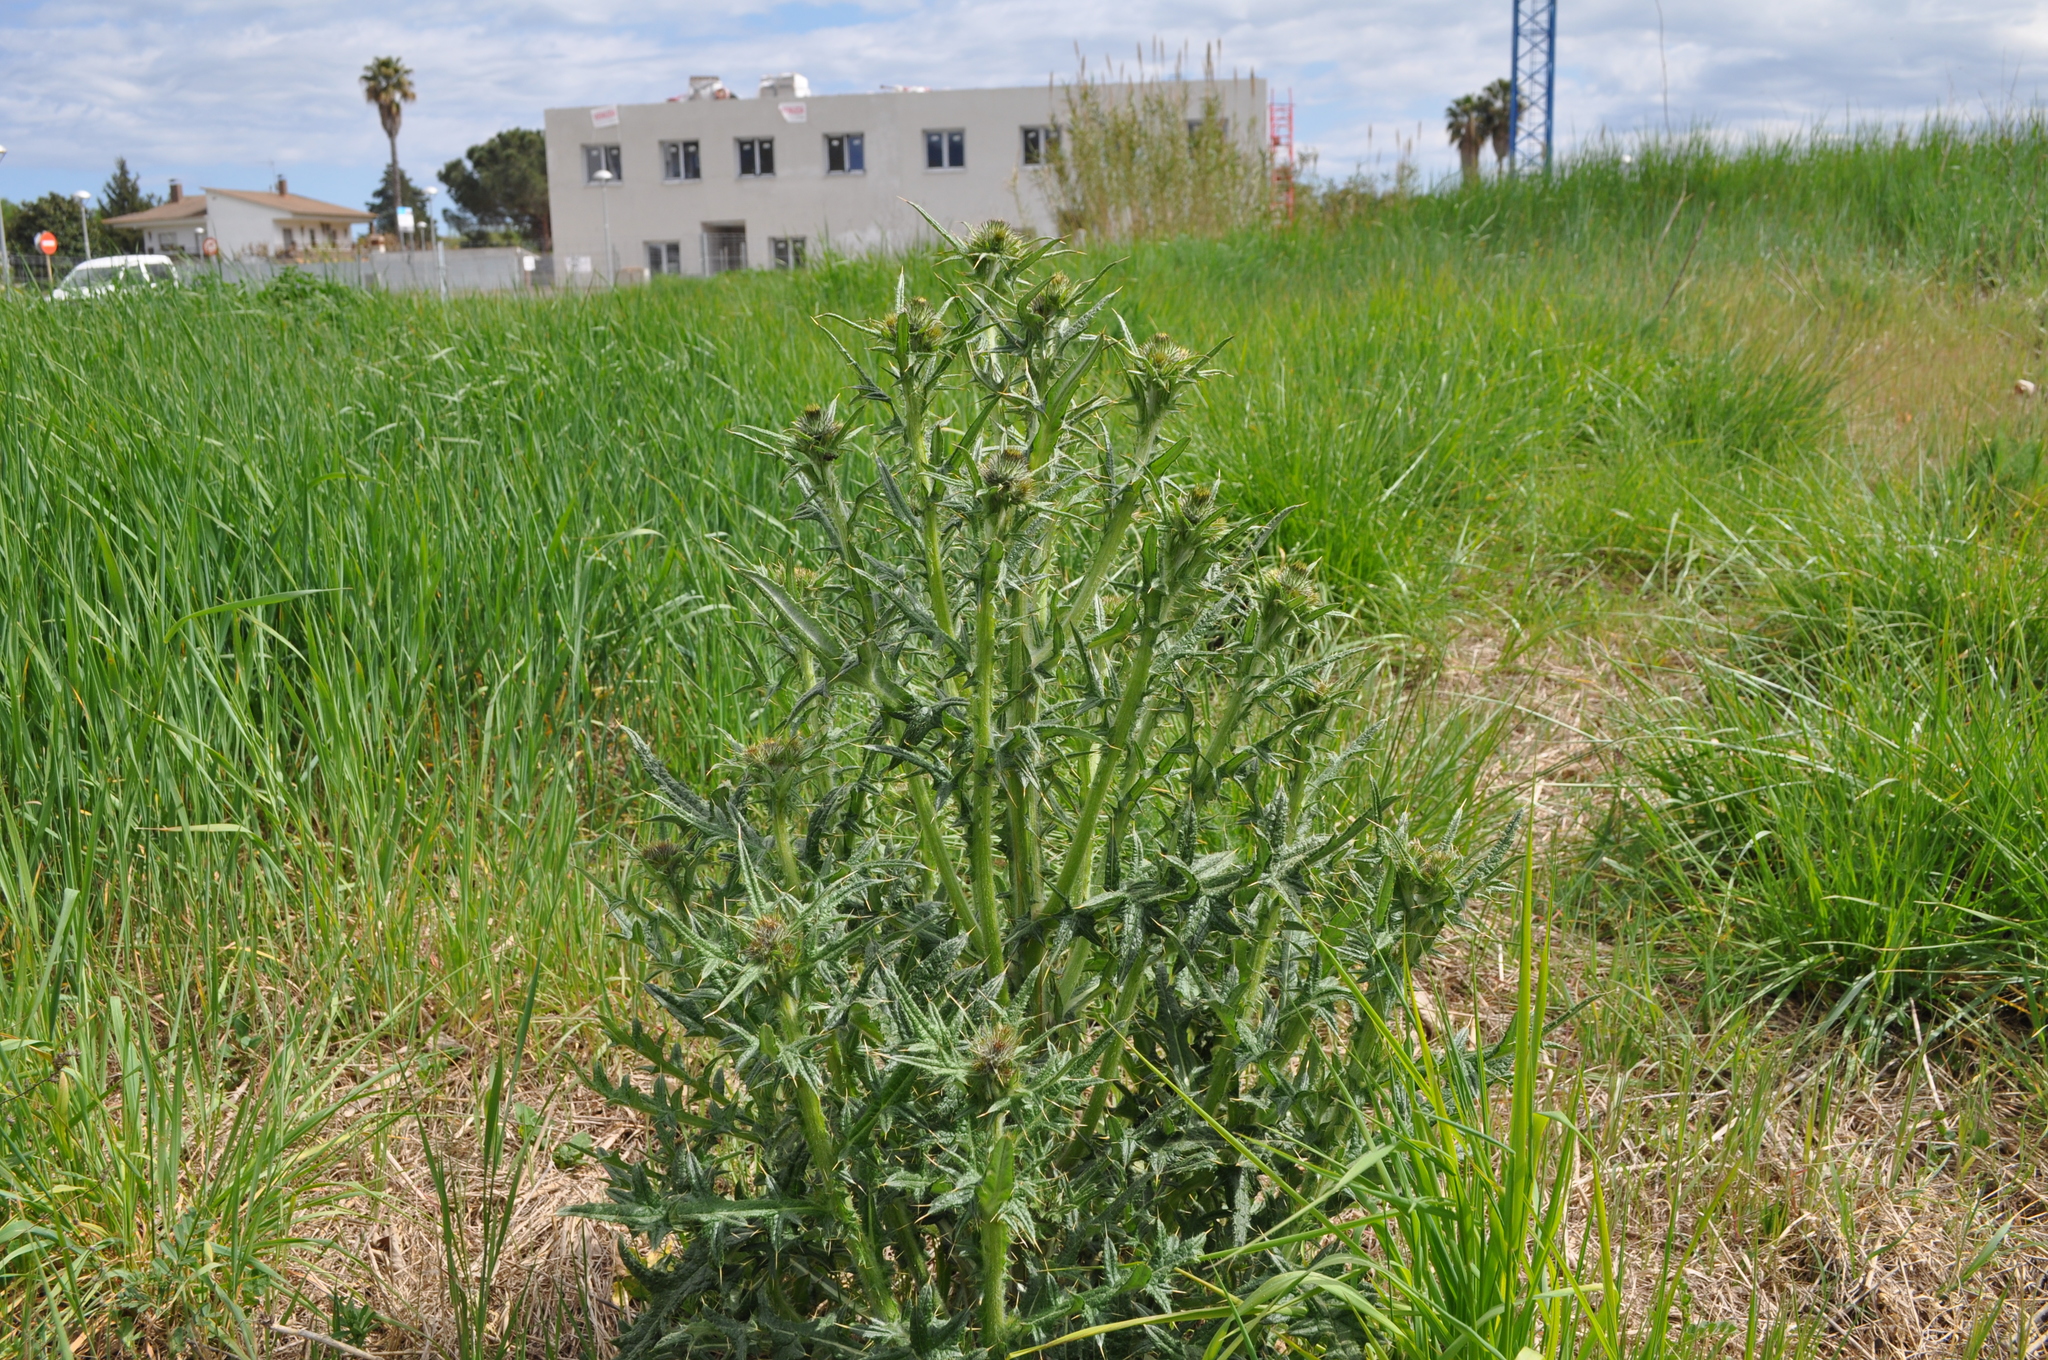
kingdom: Plantae
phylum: Tracheophyta
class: Magnoliopsida
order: Asterales
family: Asteraceae
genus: Cirsium
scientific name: Cirsium vulgare
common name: Bull thistle
